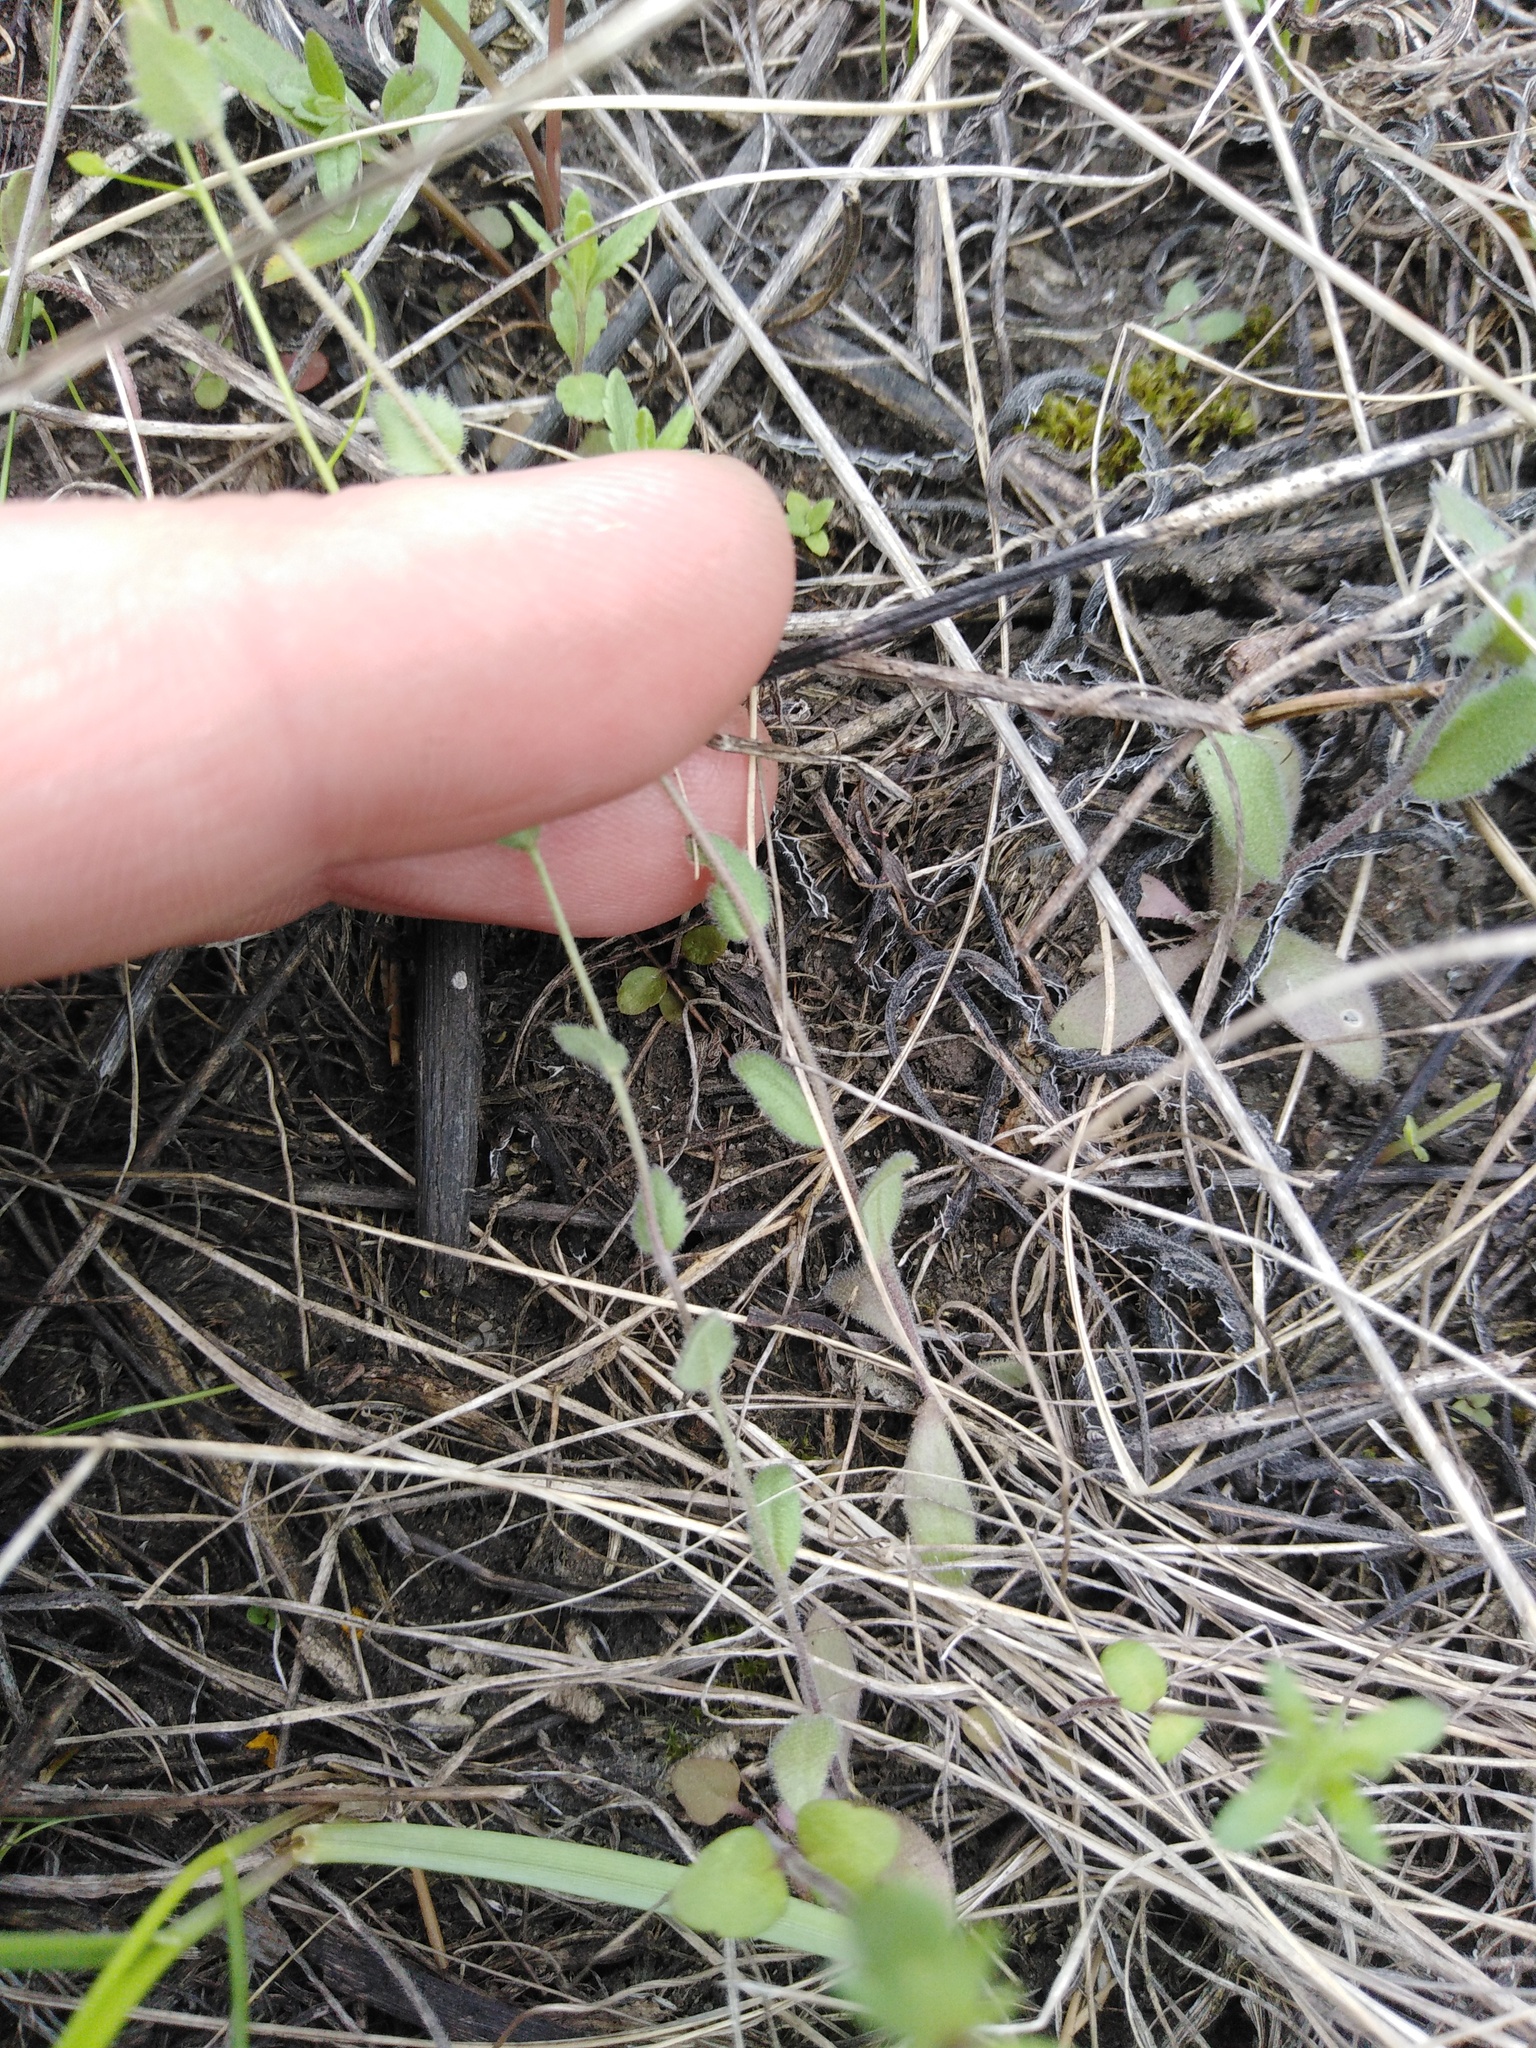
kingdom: Plantae
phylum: Tracheophyta
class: Magnoliopsida
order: Brassicales
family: Brassicaceae
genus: Draba
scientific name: Draba nemorosa
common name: Wood whitlow-grass
